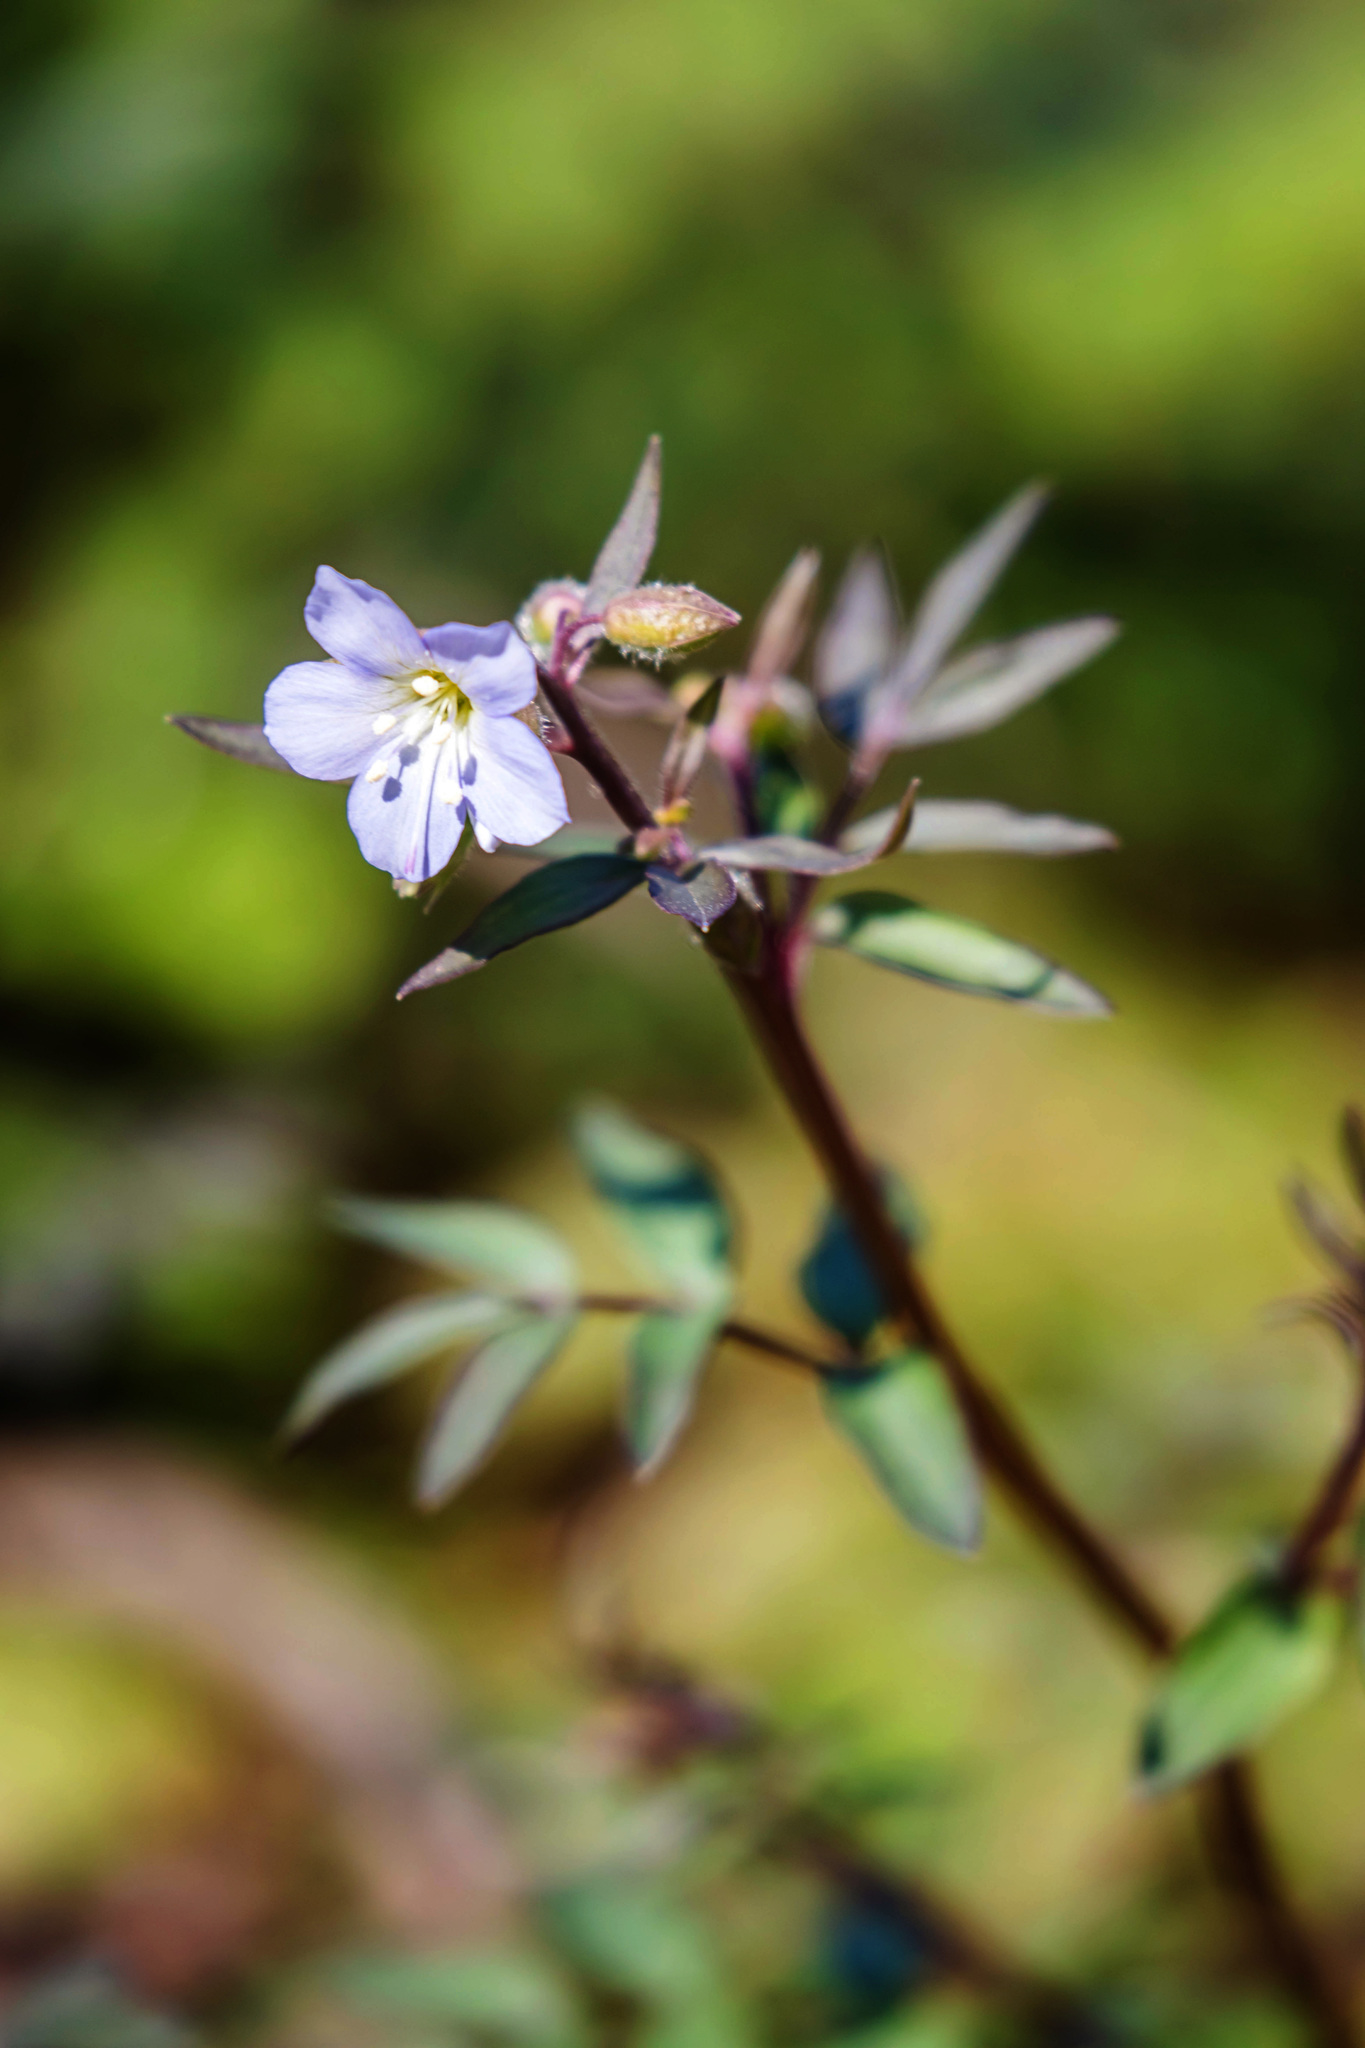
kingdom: Plantae
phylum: Tracheophyta
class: Magnoliopsida
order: Ericales
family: Polemoniaceae
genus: Polemonium
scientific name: Polemonium reptans
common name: Creeping jacob's-ladder
